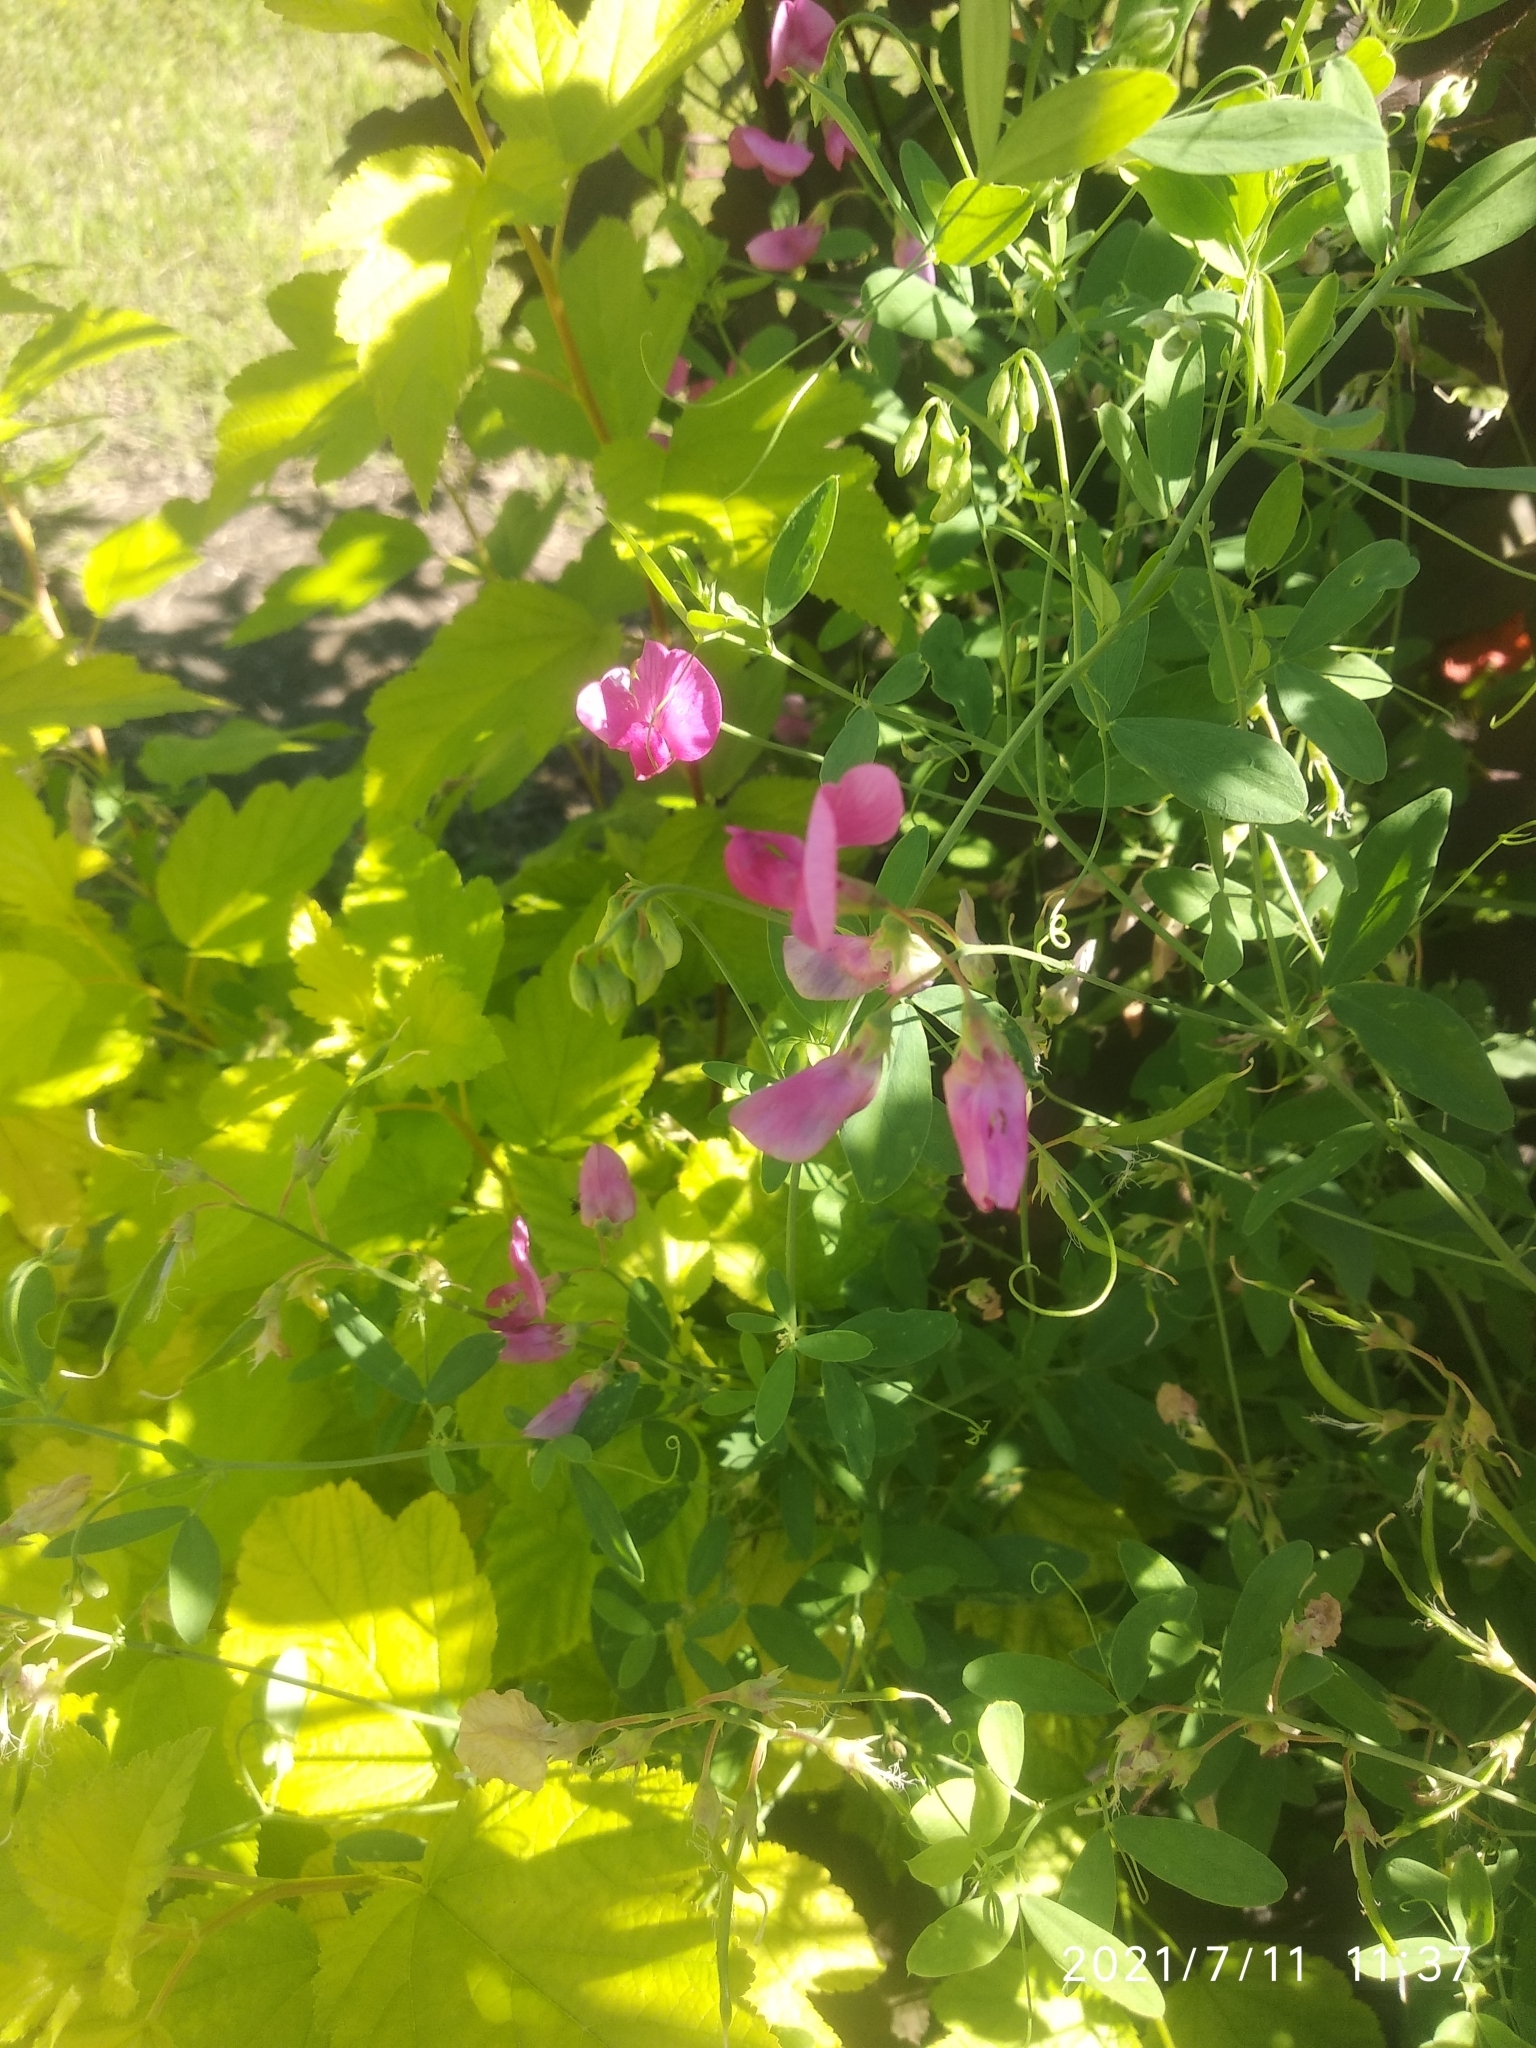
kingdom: Plantae
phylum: Tracheophyta
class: Magnoliopsida
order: Fabales
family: Fabaceae
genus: Lathyrus
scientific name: Lathyrus tuberosus
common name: Tuberous pea
